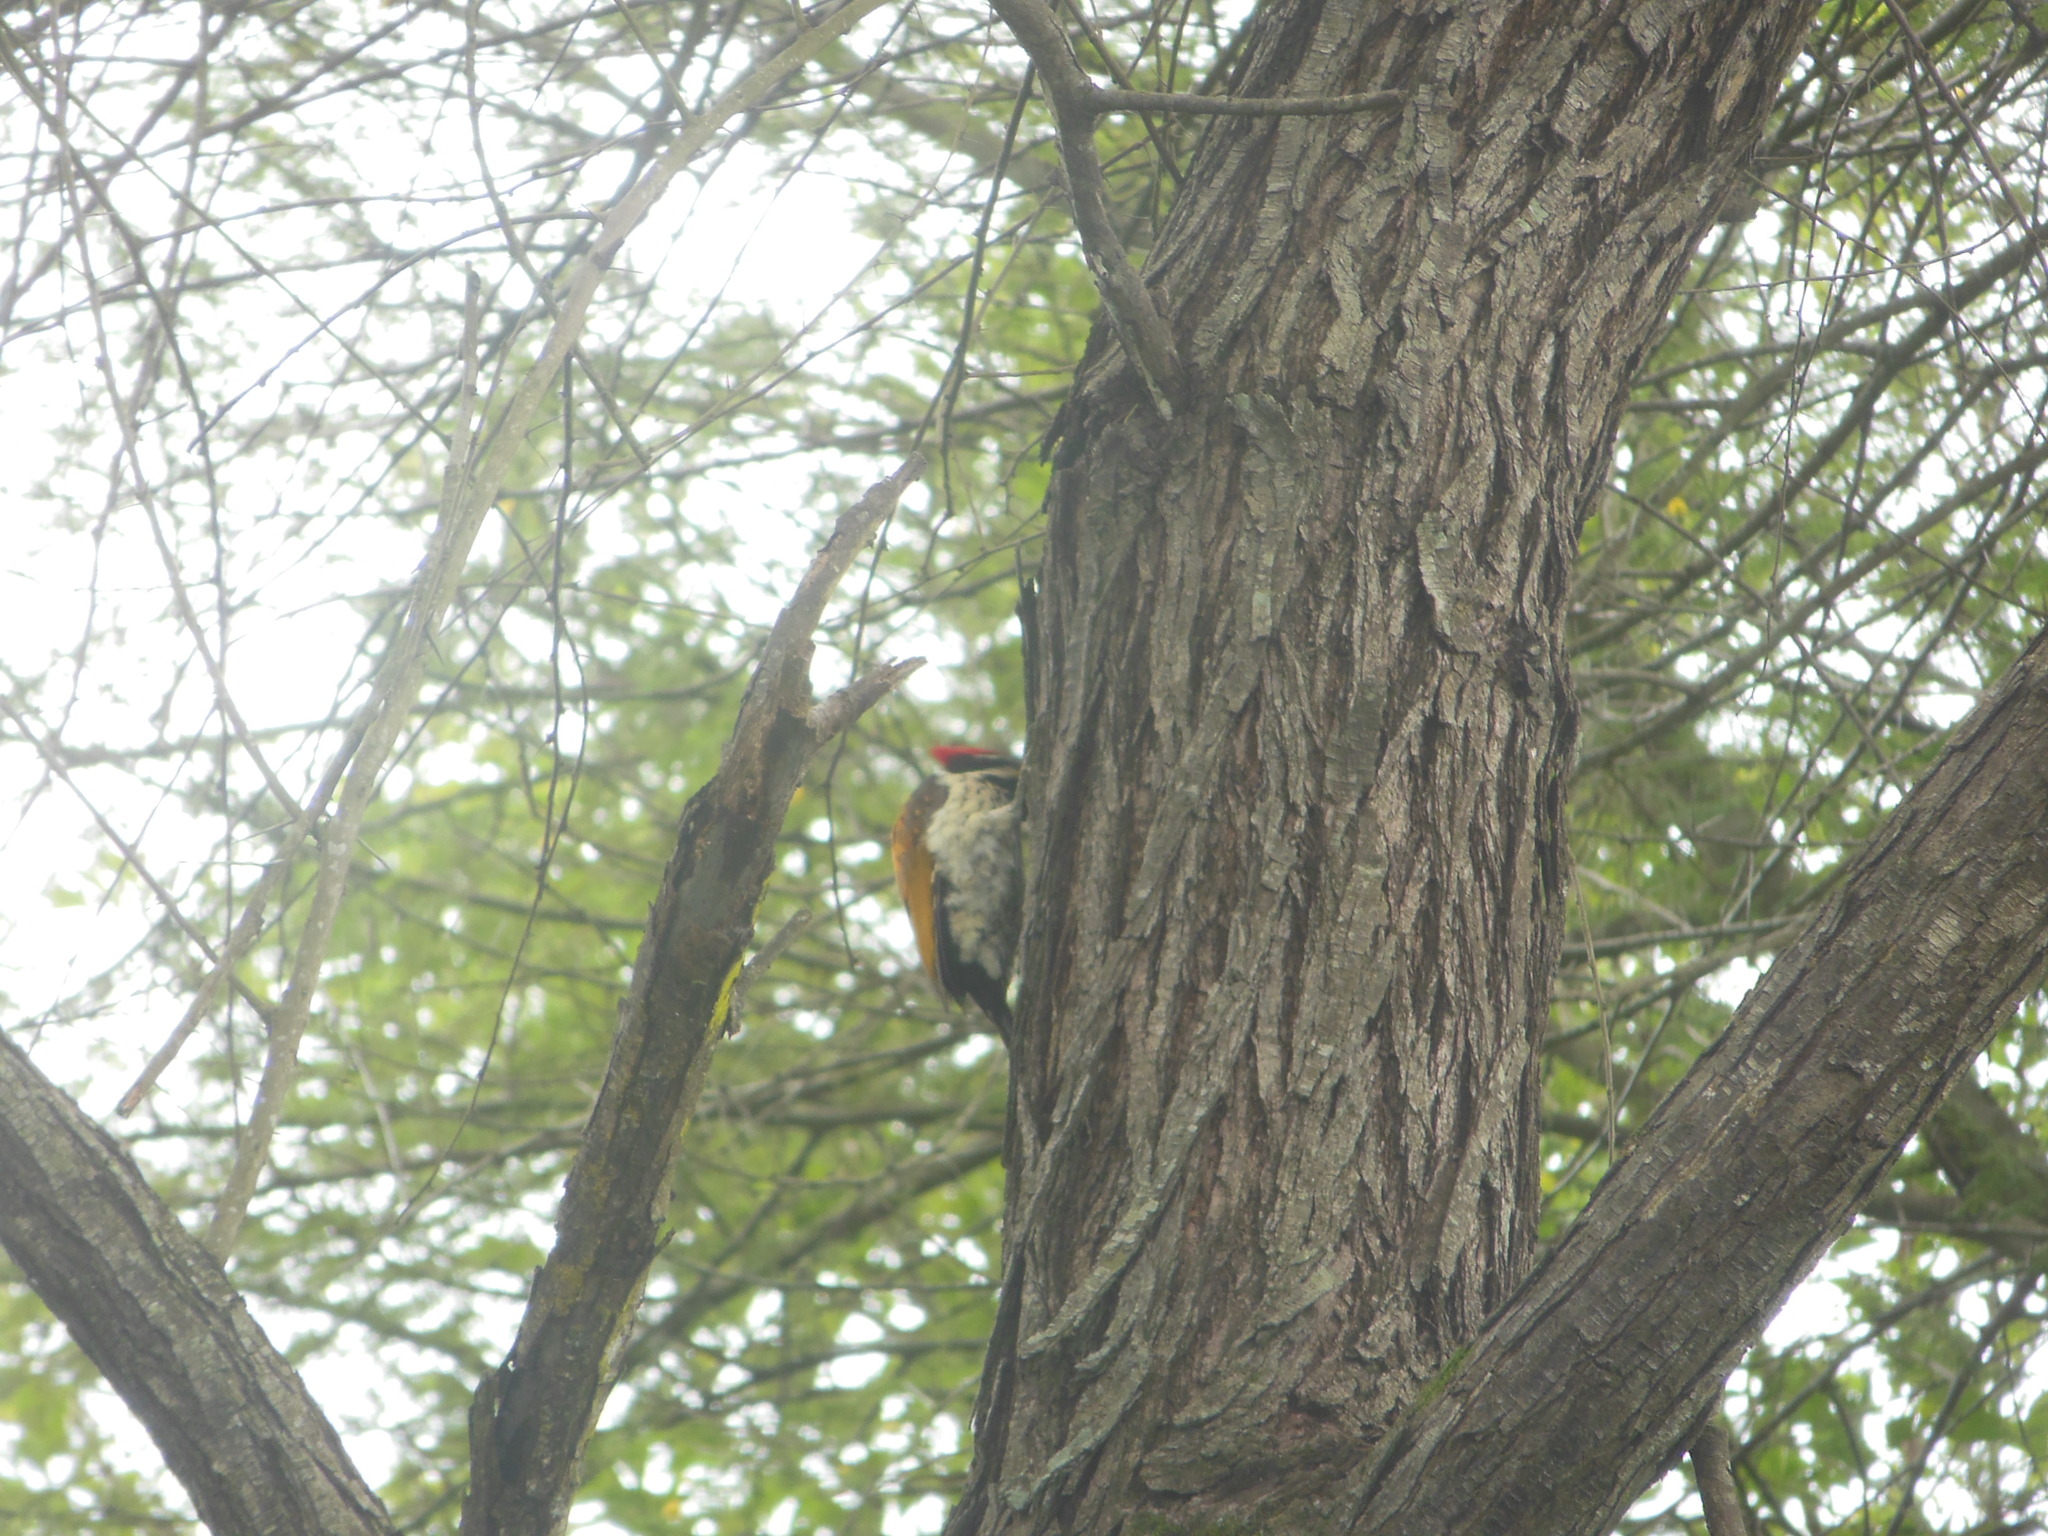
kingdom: Animalia
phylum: Chordata
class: Aves
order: Piciformes
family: Picidae
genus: Dinopium
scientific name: Dinopium benghalense
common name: Black-rumped flameback
